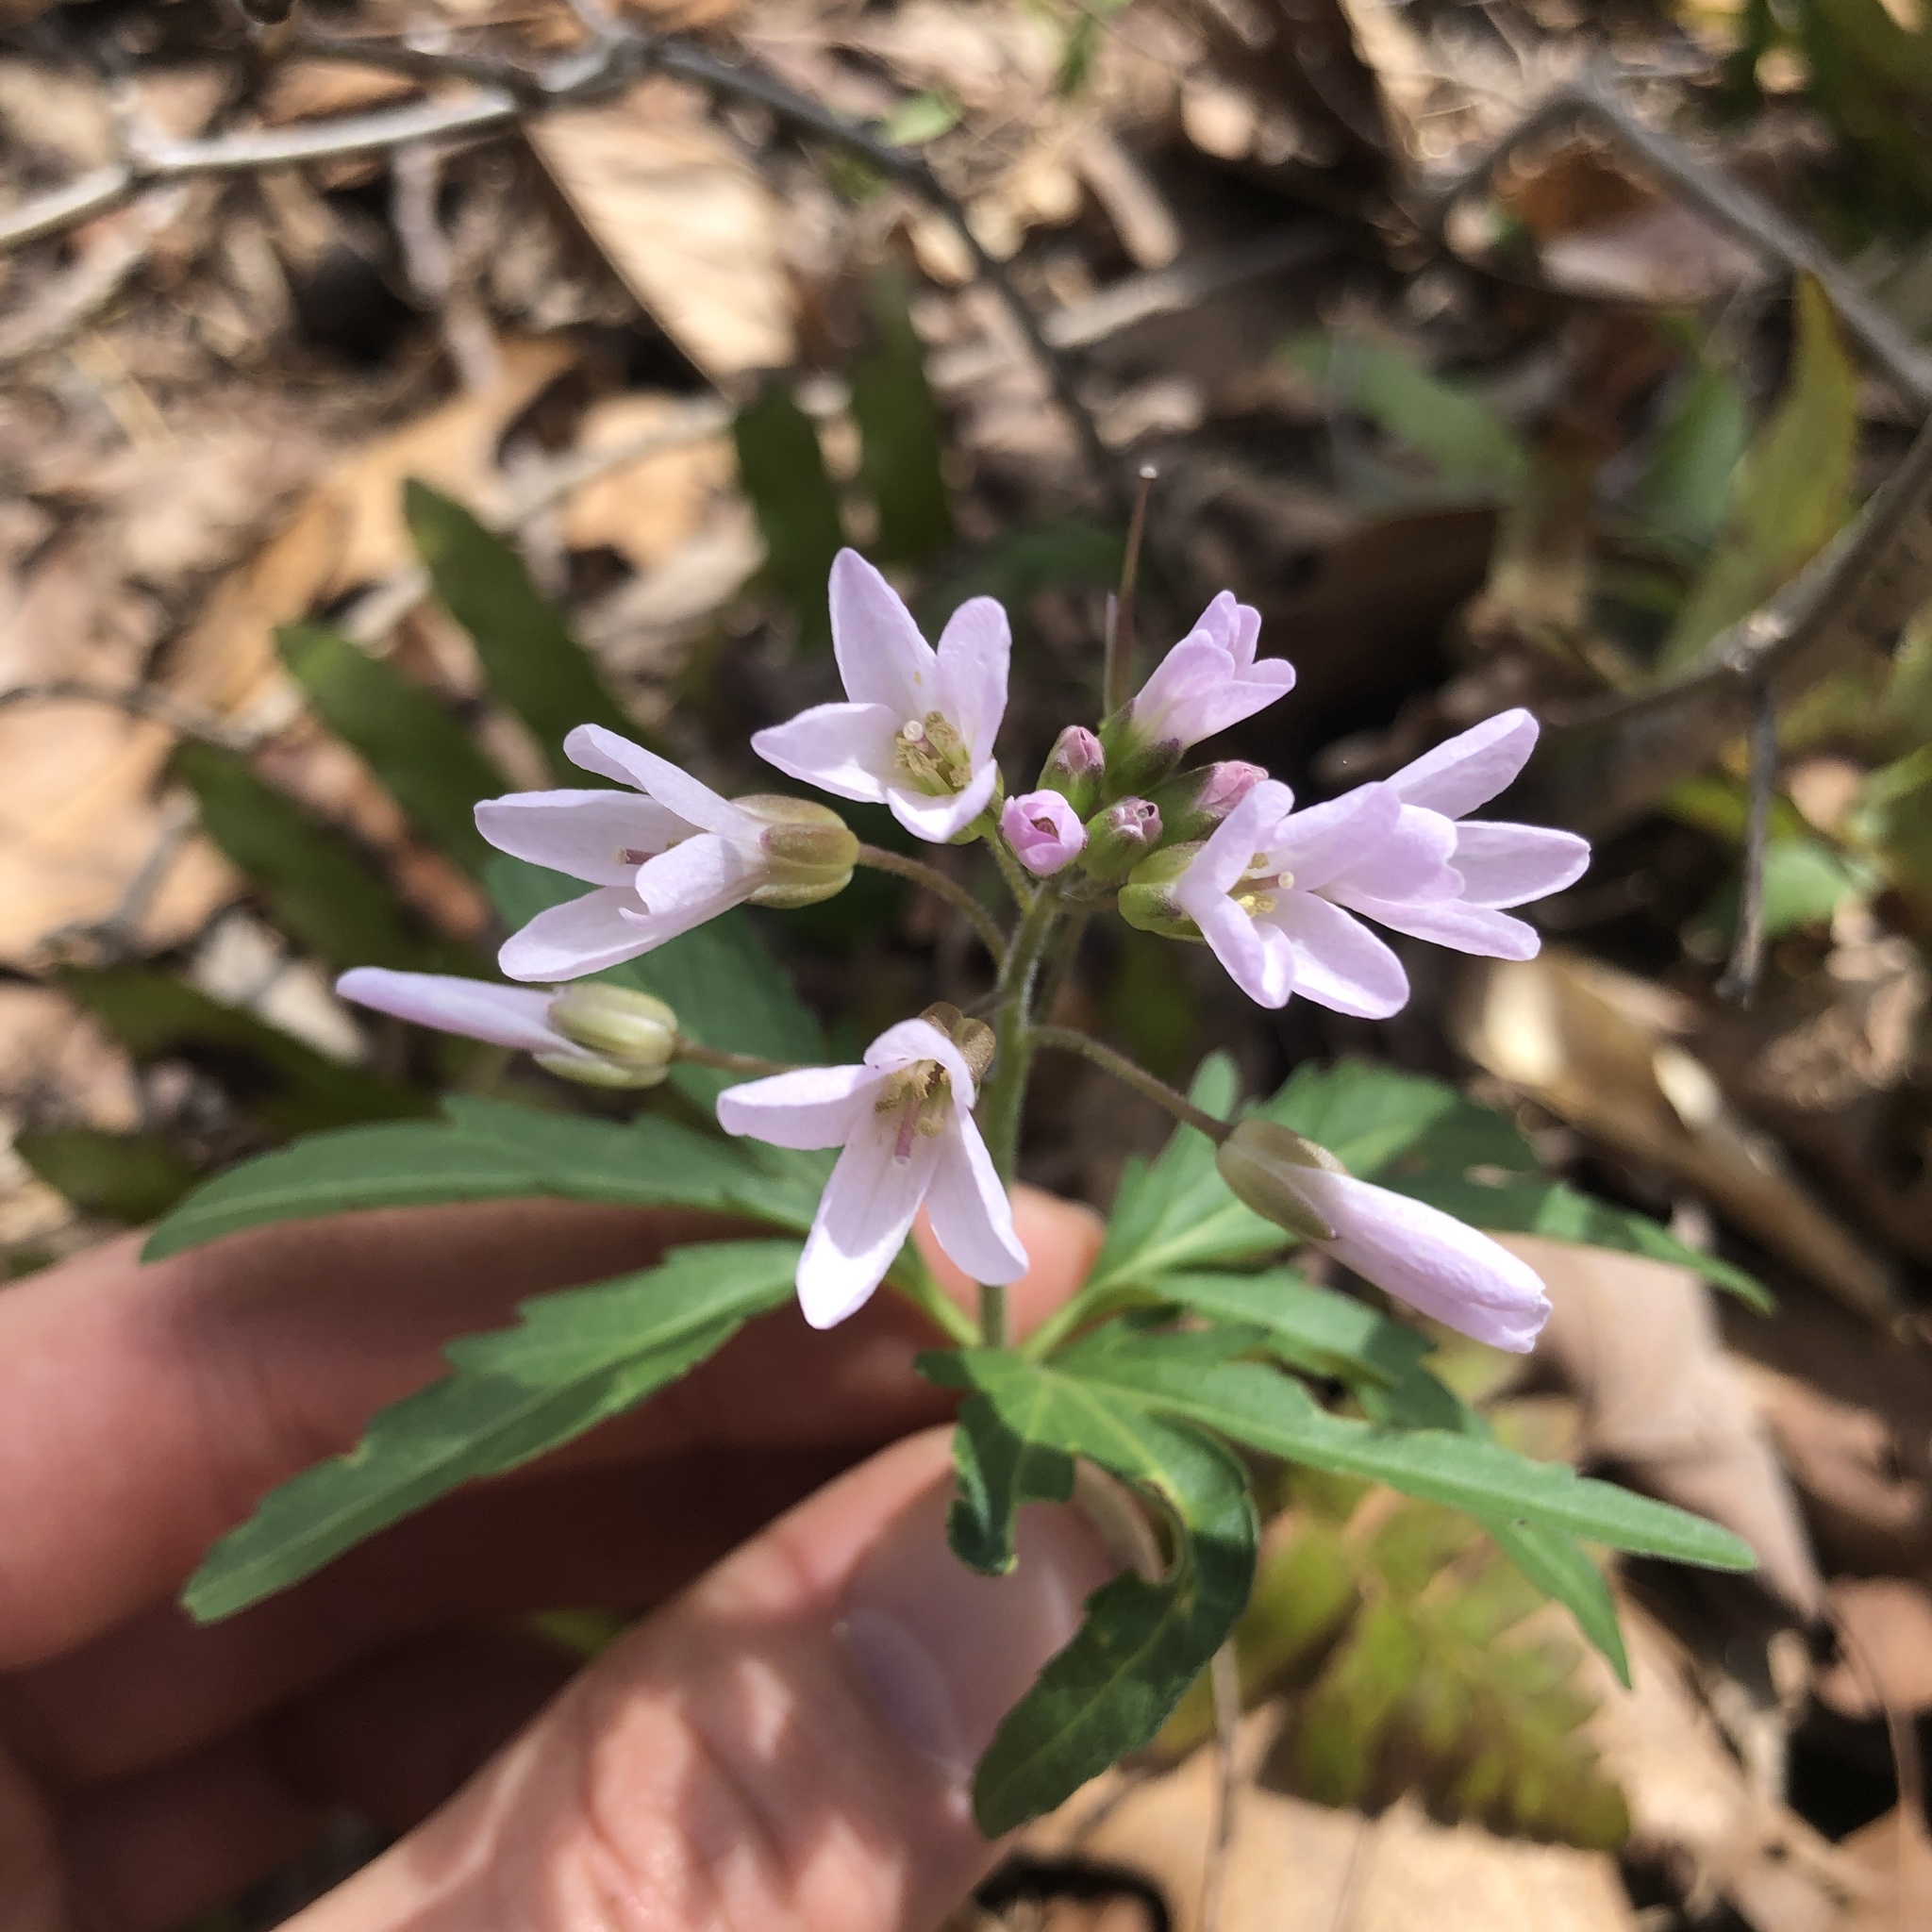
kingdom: Plantae
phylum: Tracheophyta
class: Magnoliopsida
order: Brassicales
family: Brassicaceae
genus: Cardamine
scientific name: Cardamine concatenata
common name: Cut-leaf toothcup
